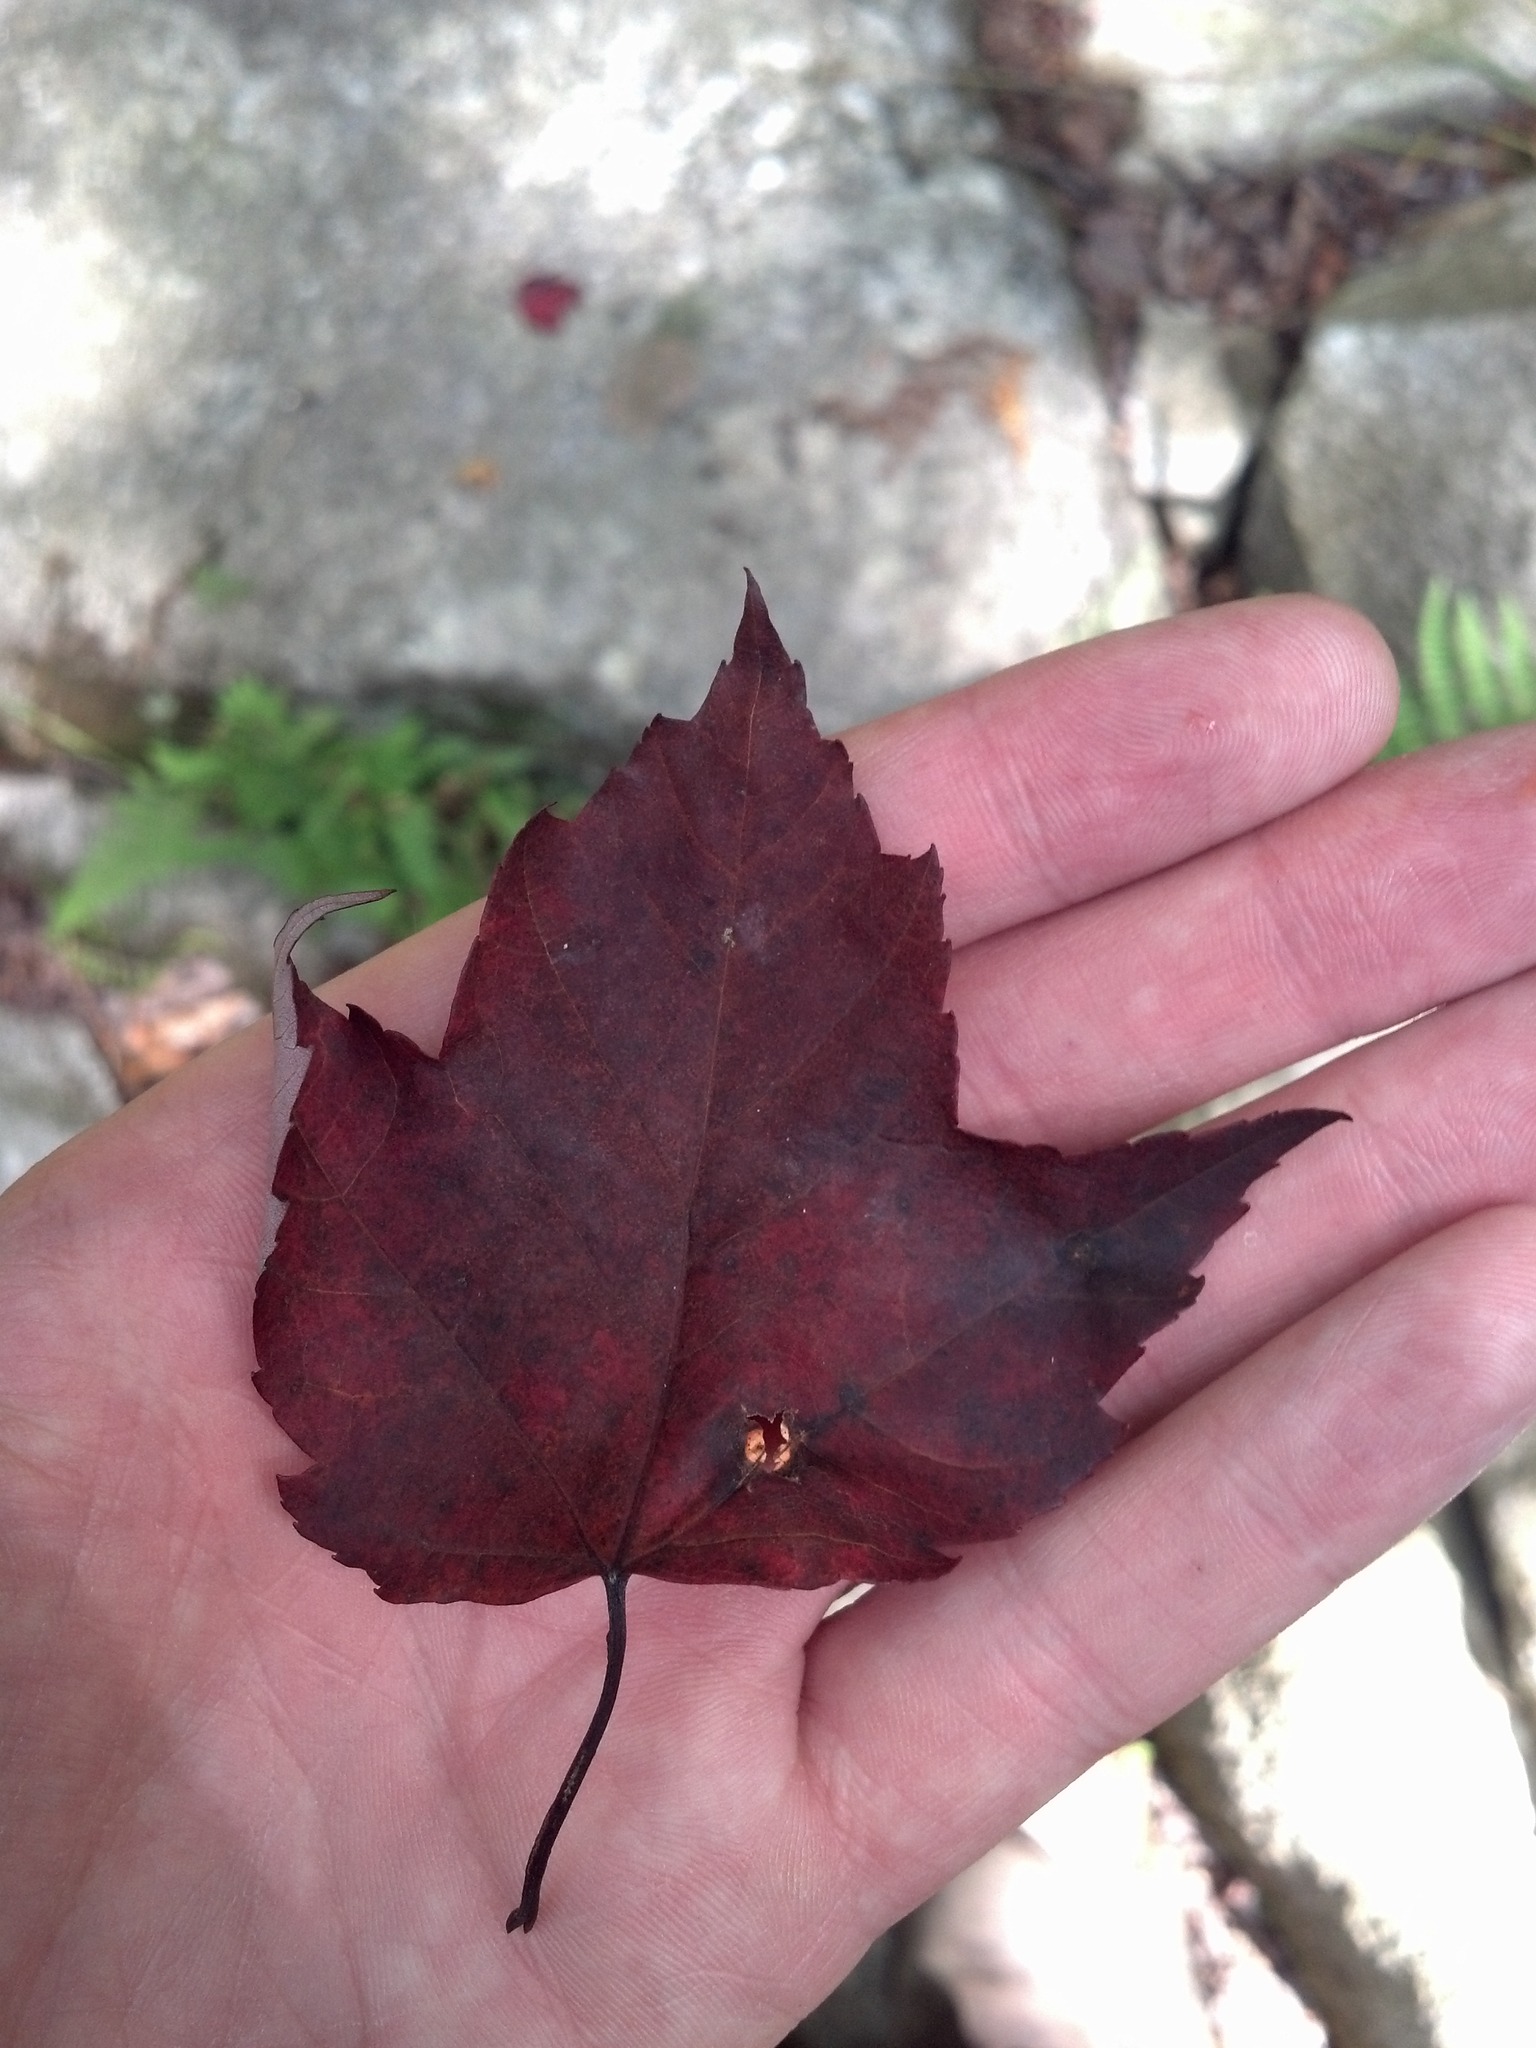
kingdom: Plantae
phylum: Tracheophyta
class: Magnoliopsida
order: Sapindales
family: Sapindaceae
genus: Acer
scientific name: Acer rubrum
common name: Red maple
